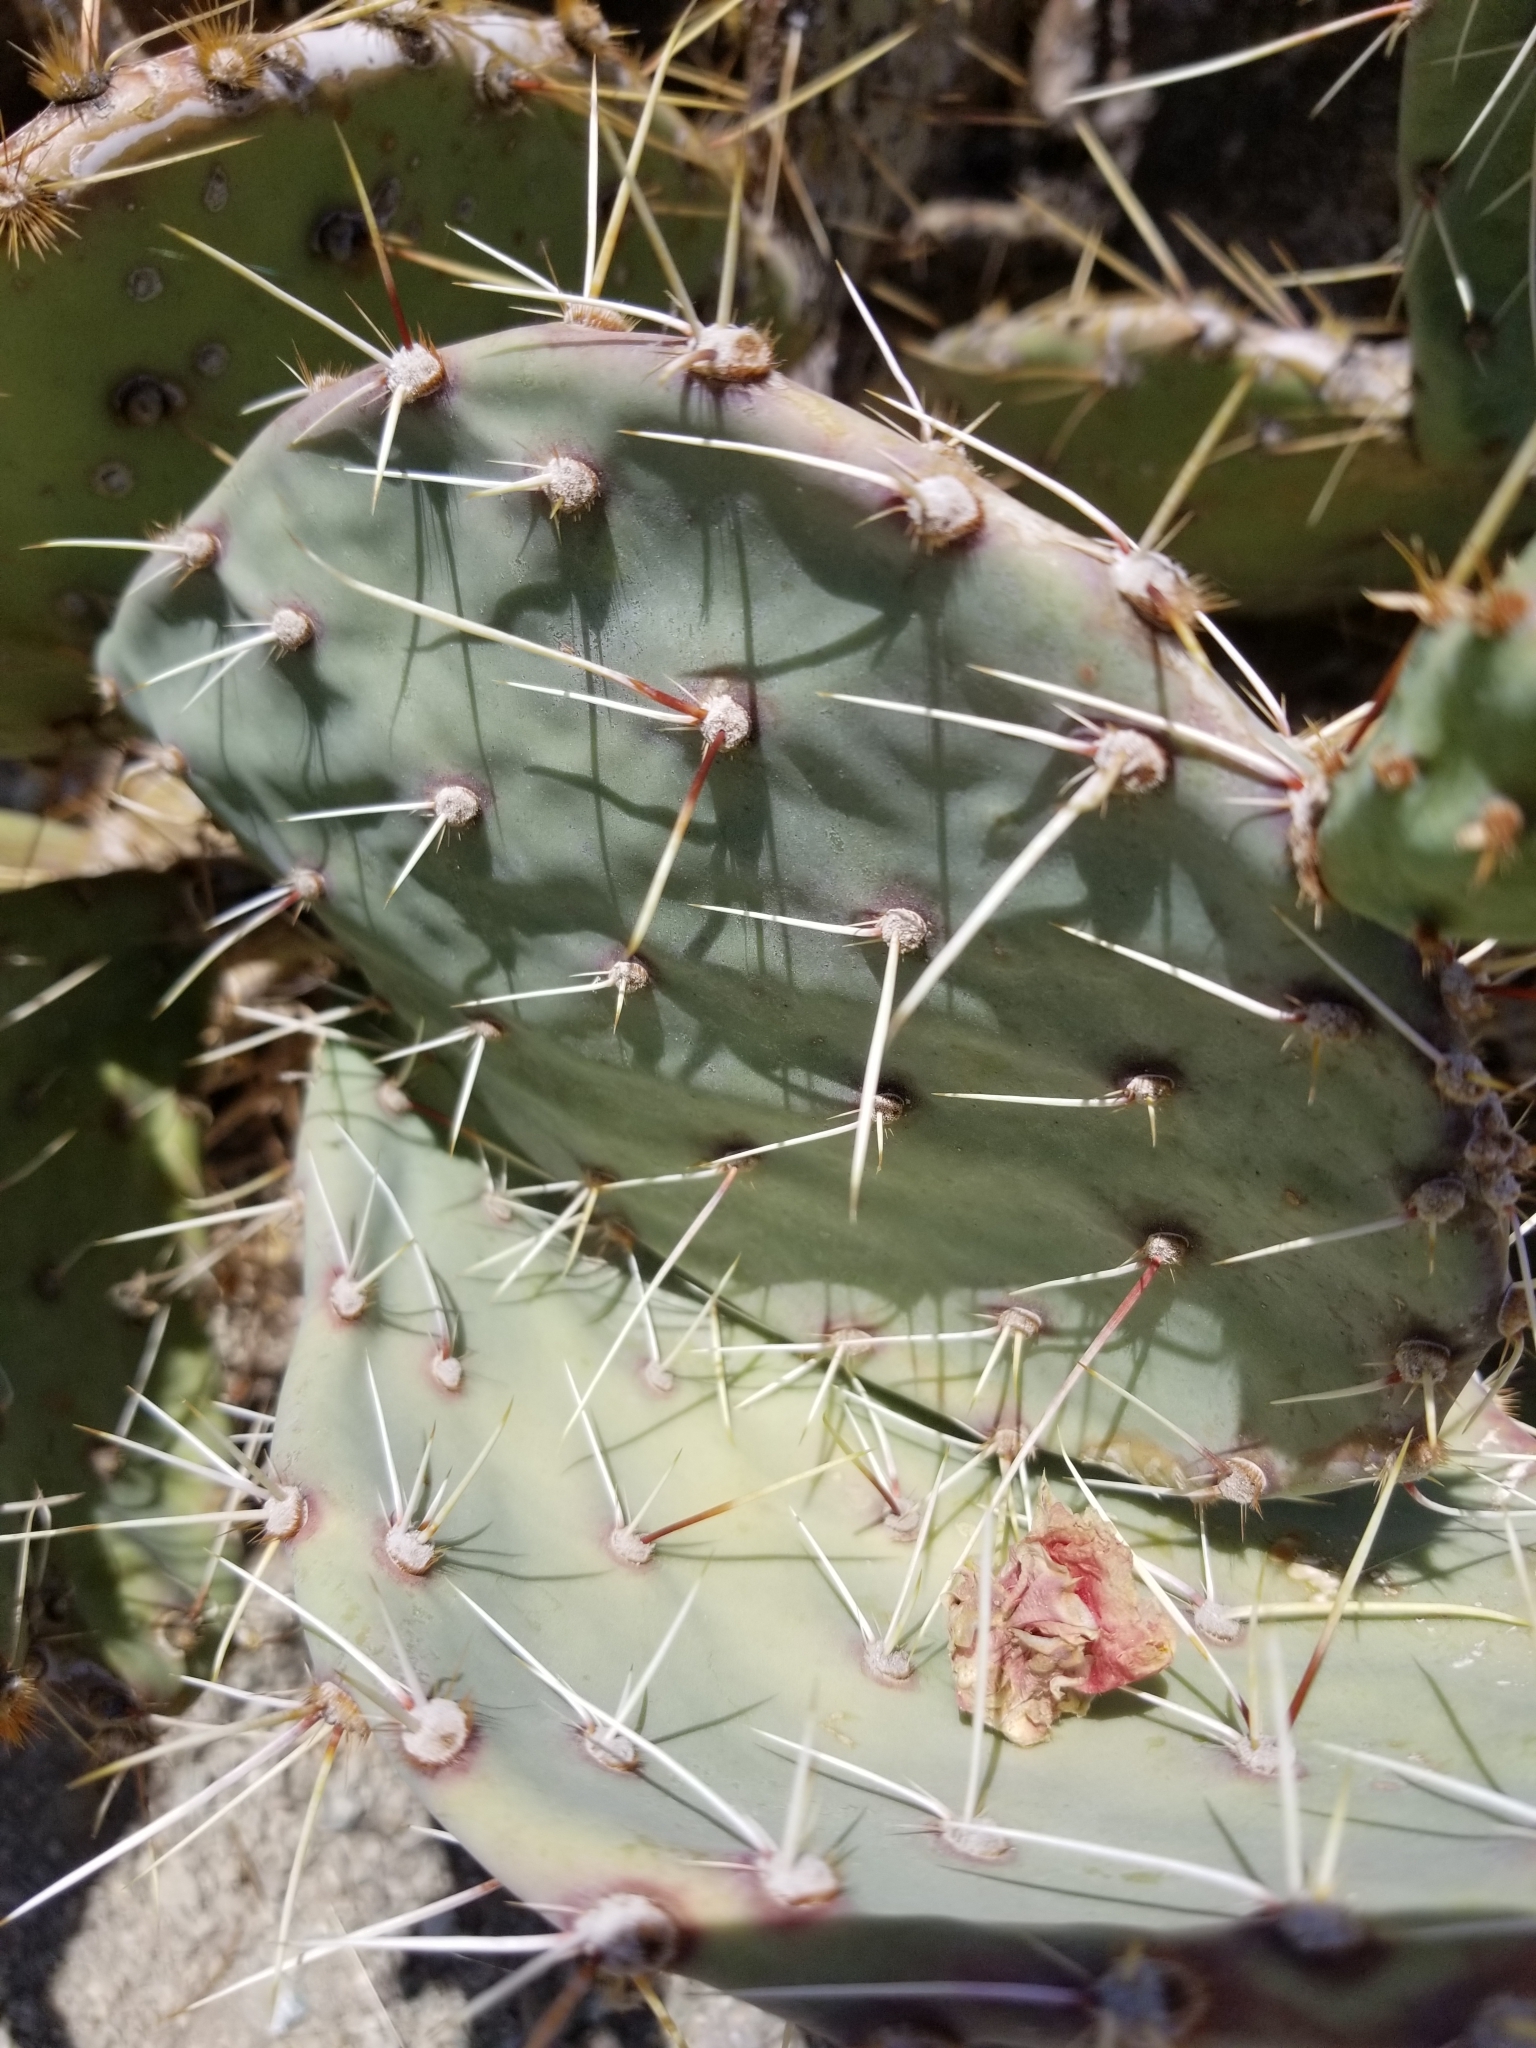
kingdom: Plantae
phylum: Tracheophyta
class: Magnoliopsida
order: Caryophyllales
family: Cactaceae
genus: Opuntia
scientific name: Opuntia phaeacantha
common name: New mexico prickly-pear
